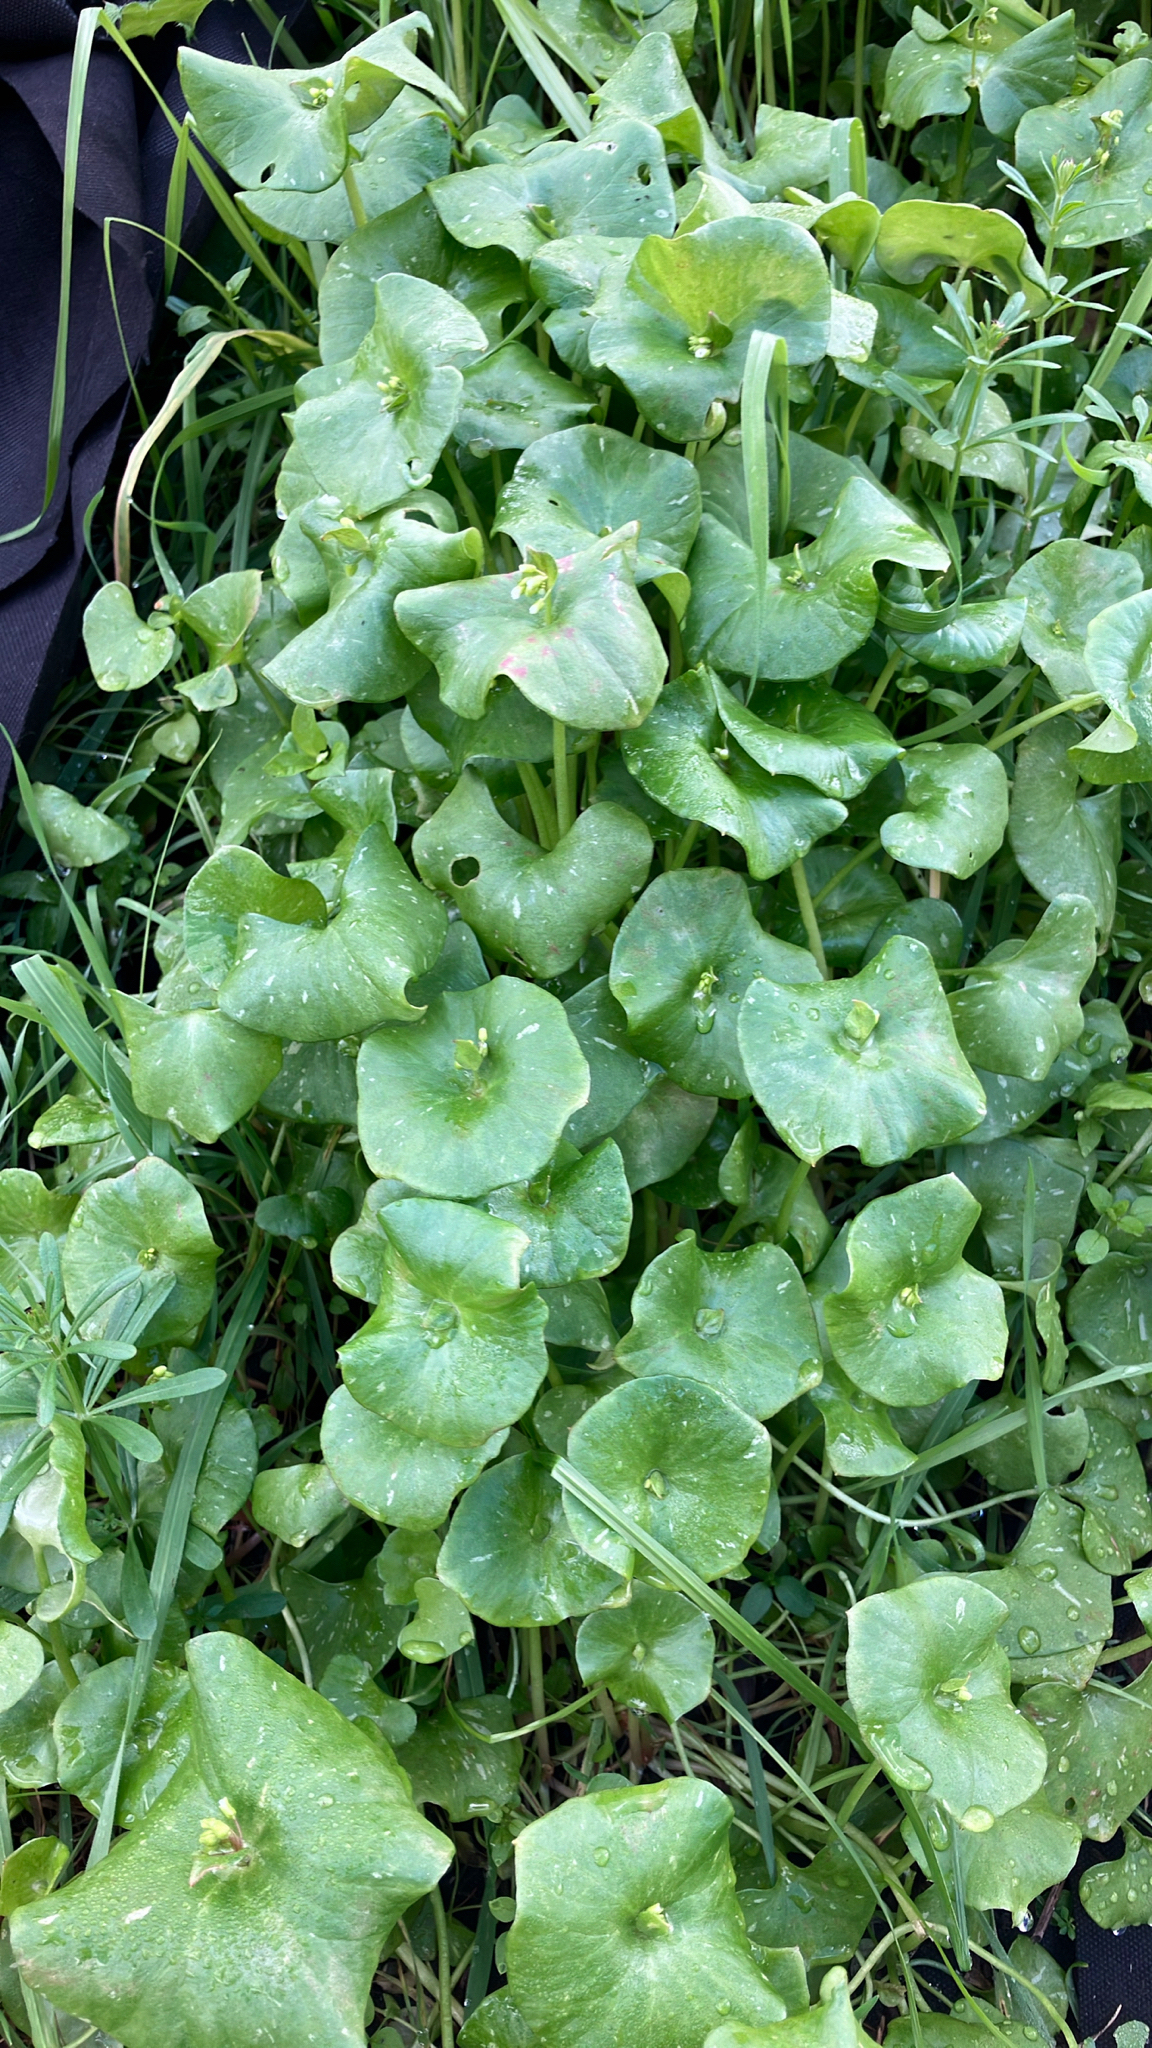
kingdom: Plantae
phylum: Tracheophyta
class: Magnoliopsida
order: Caryophyllales
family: Montiaceae
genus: Claytonia
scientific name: Claytonia perfoliata
